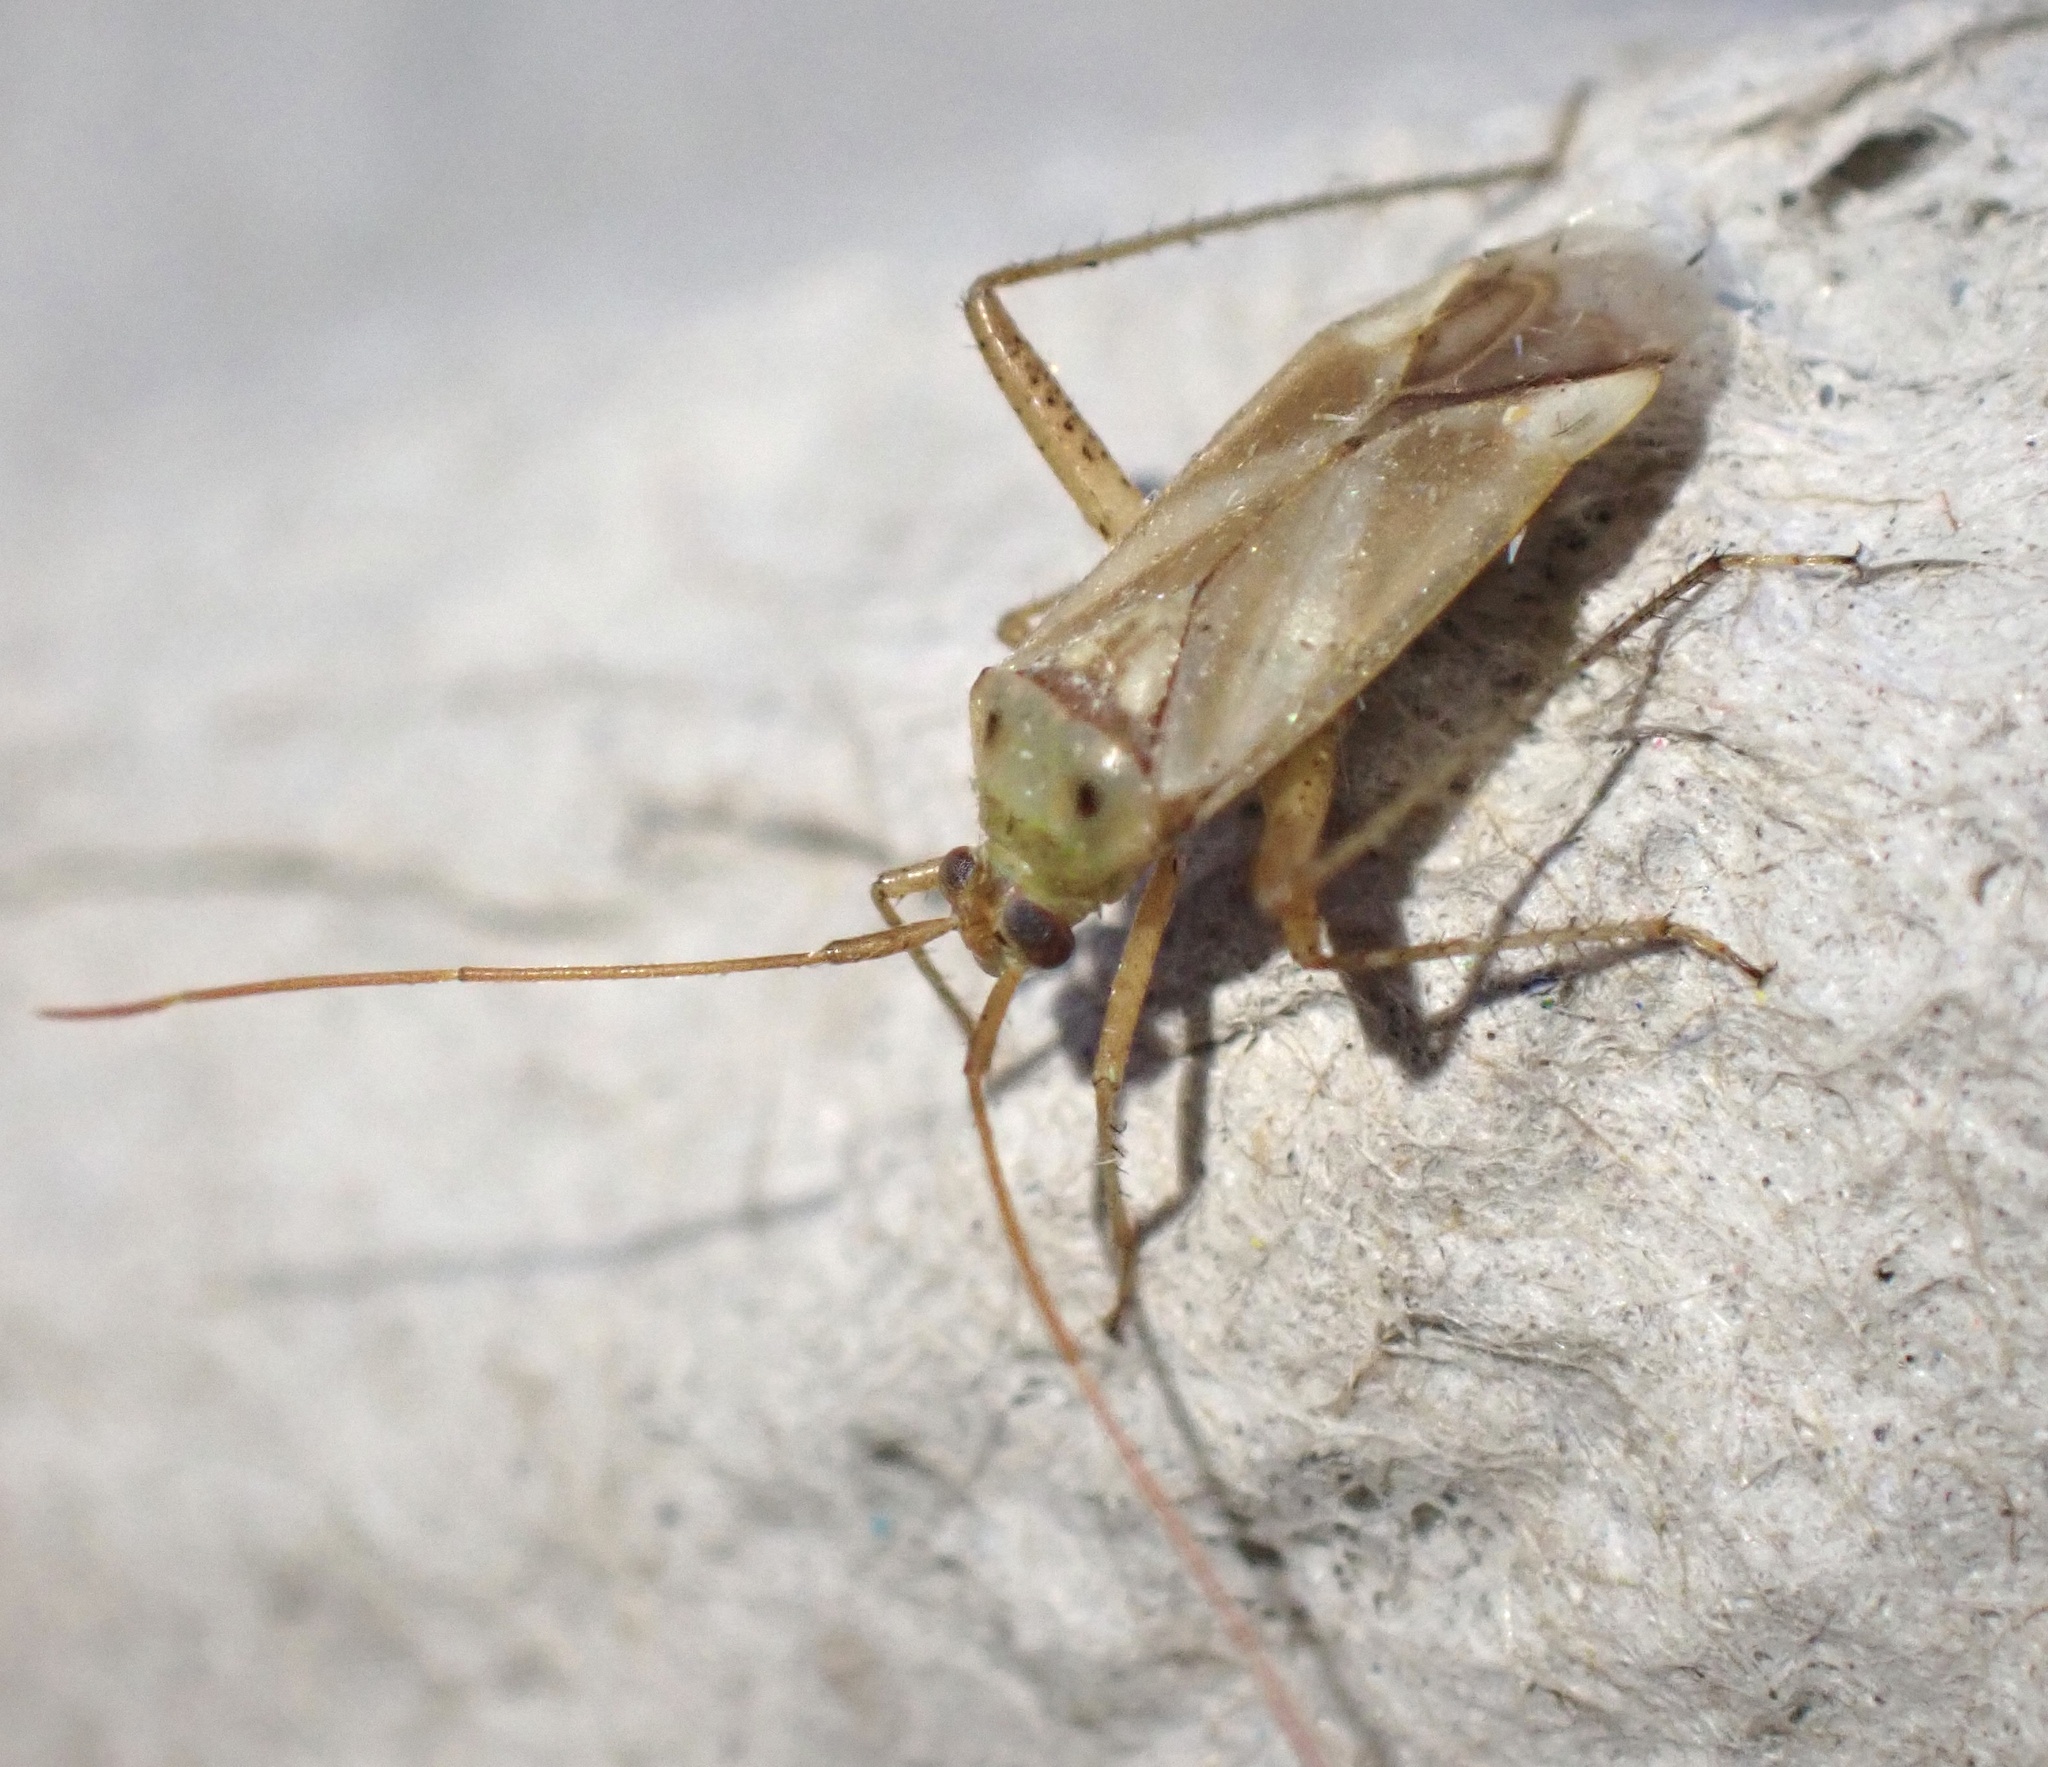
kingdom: Animalia
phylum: Arthropoda
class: Insecta
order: Hemiptera
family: Miridae
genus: Adelphocoris
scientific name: Adelphocoris lineolatus
